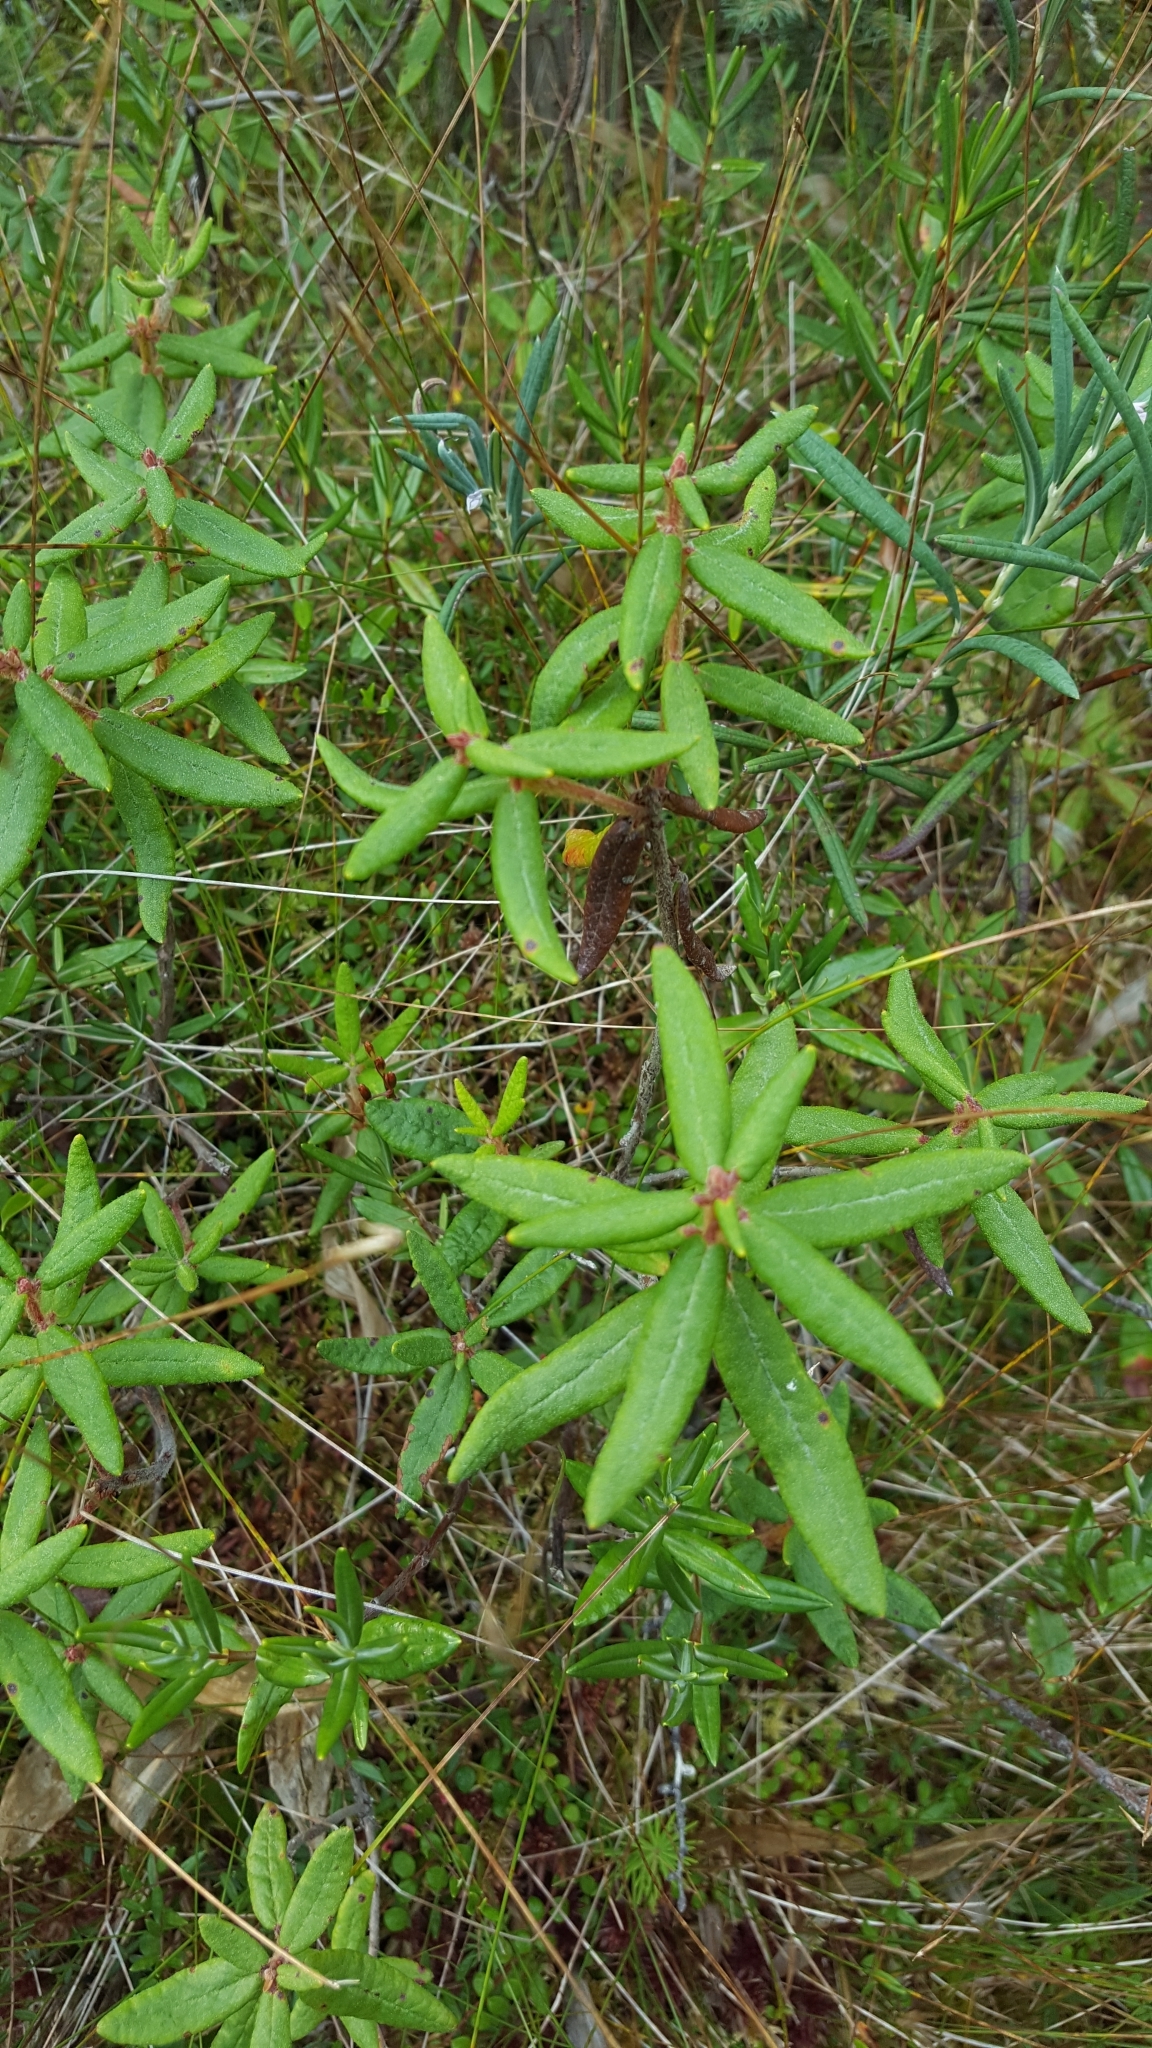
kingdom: Plantae
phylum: Tracheophyta
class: Magnoliopsida
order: Ericales
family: Ericaceae
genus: Rhododendron
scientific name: Rhododendron groenlandicum
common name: Bog labrador tea
